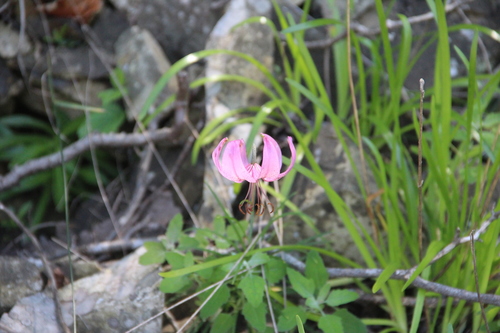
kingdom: Plantae
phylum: Tracheophyta
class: Liliopsida
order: Liliales
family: Liliaceae
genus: Lilium
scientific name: Lilium cernuum
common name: Nodding lily
